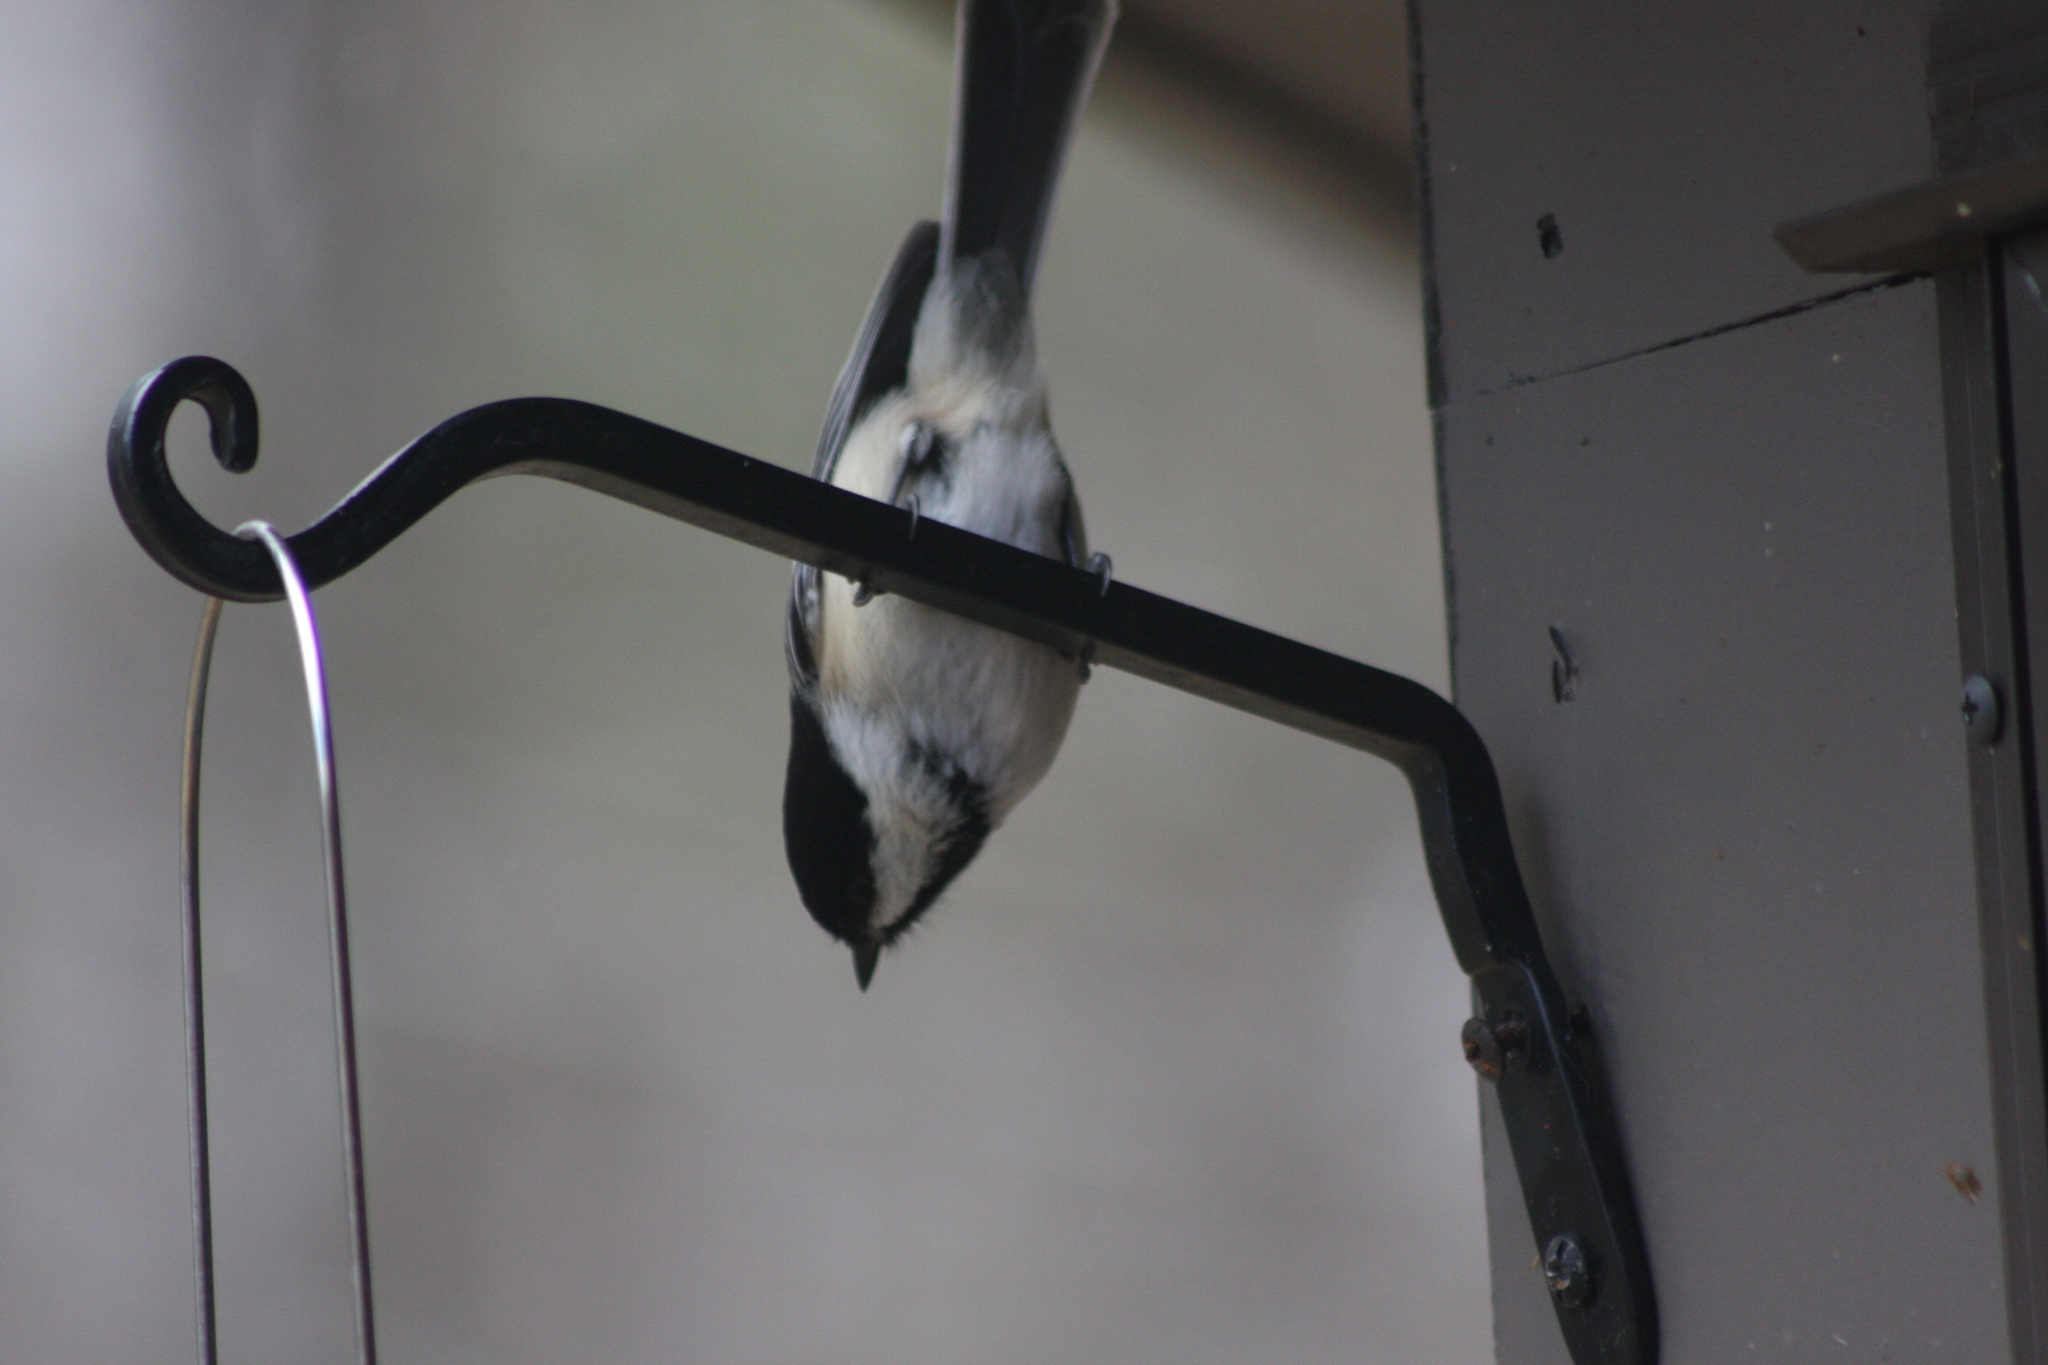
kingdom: Animalia
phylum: Chordata
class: Aves
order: Passeriformes
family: Paridae
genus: Poecile
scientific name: Poecile atricapillus
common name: Black-capped chickadee
